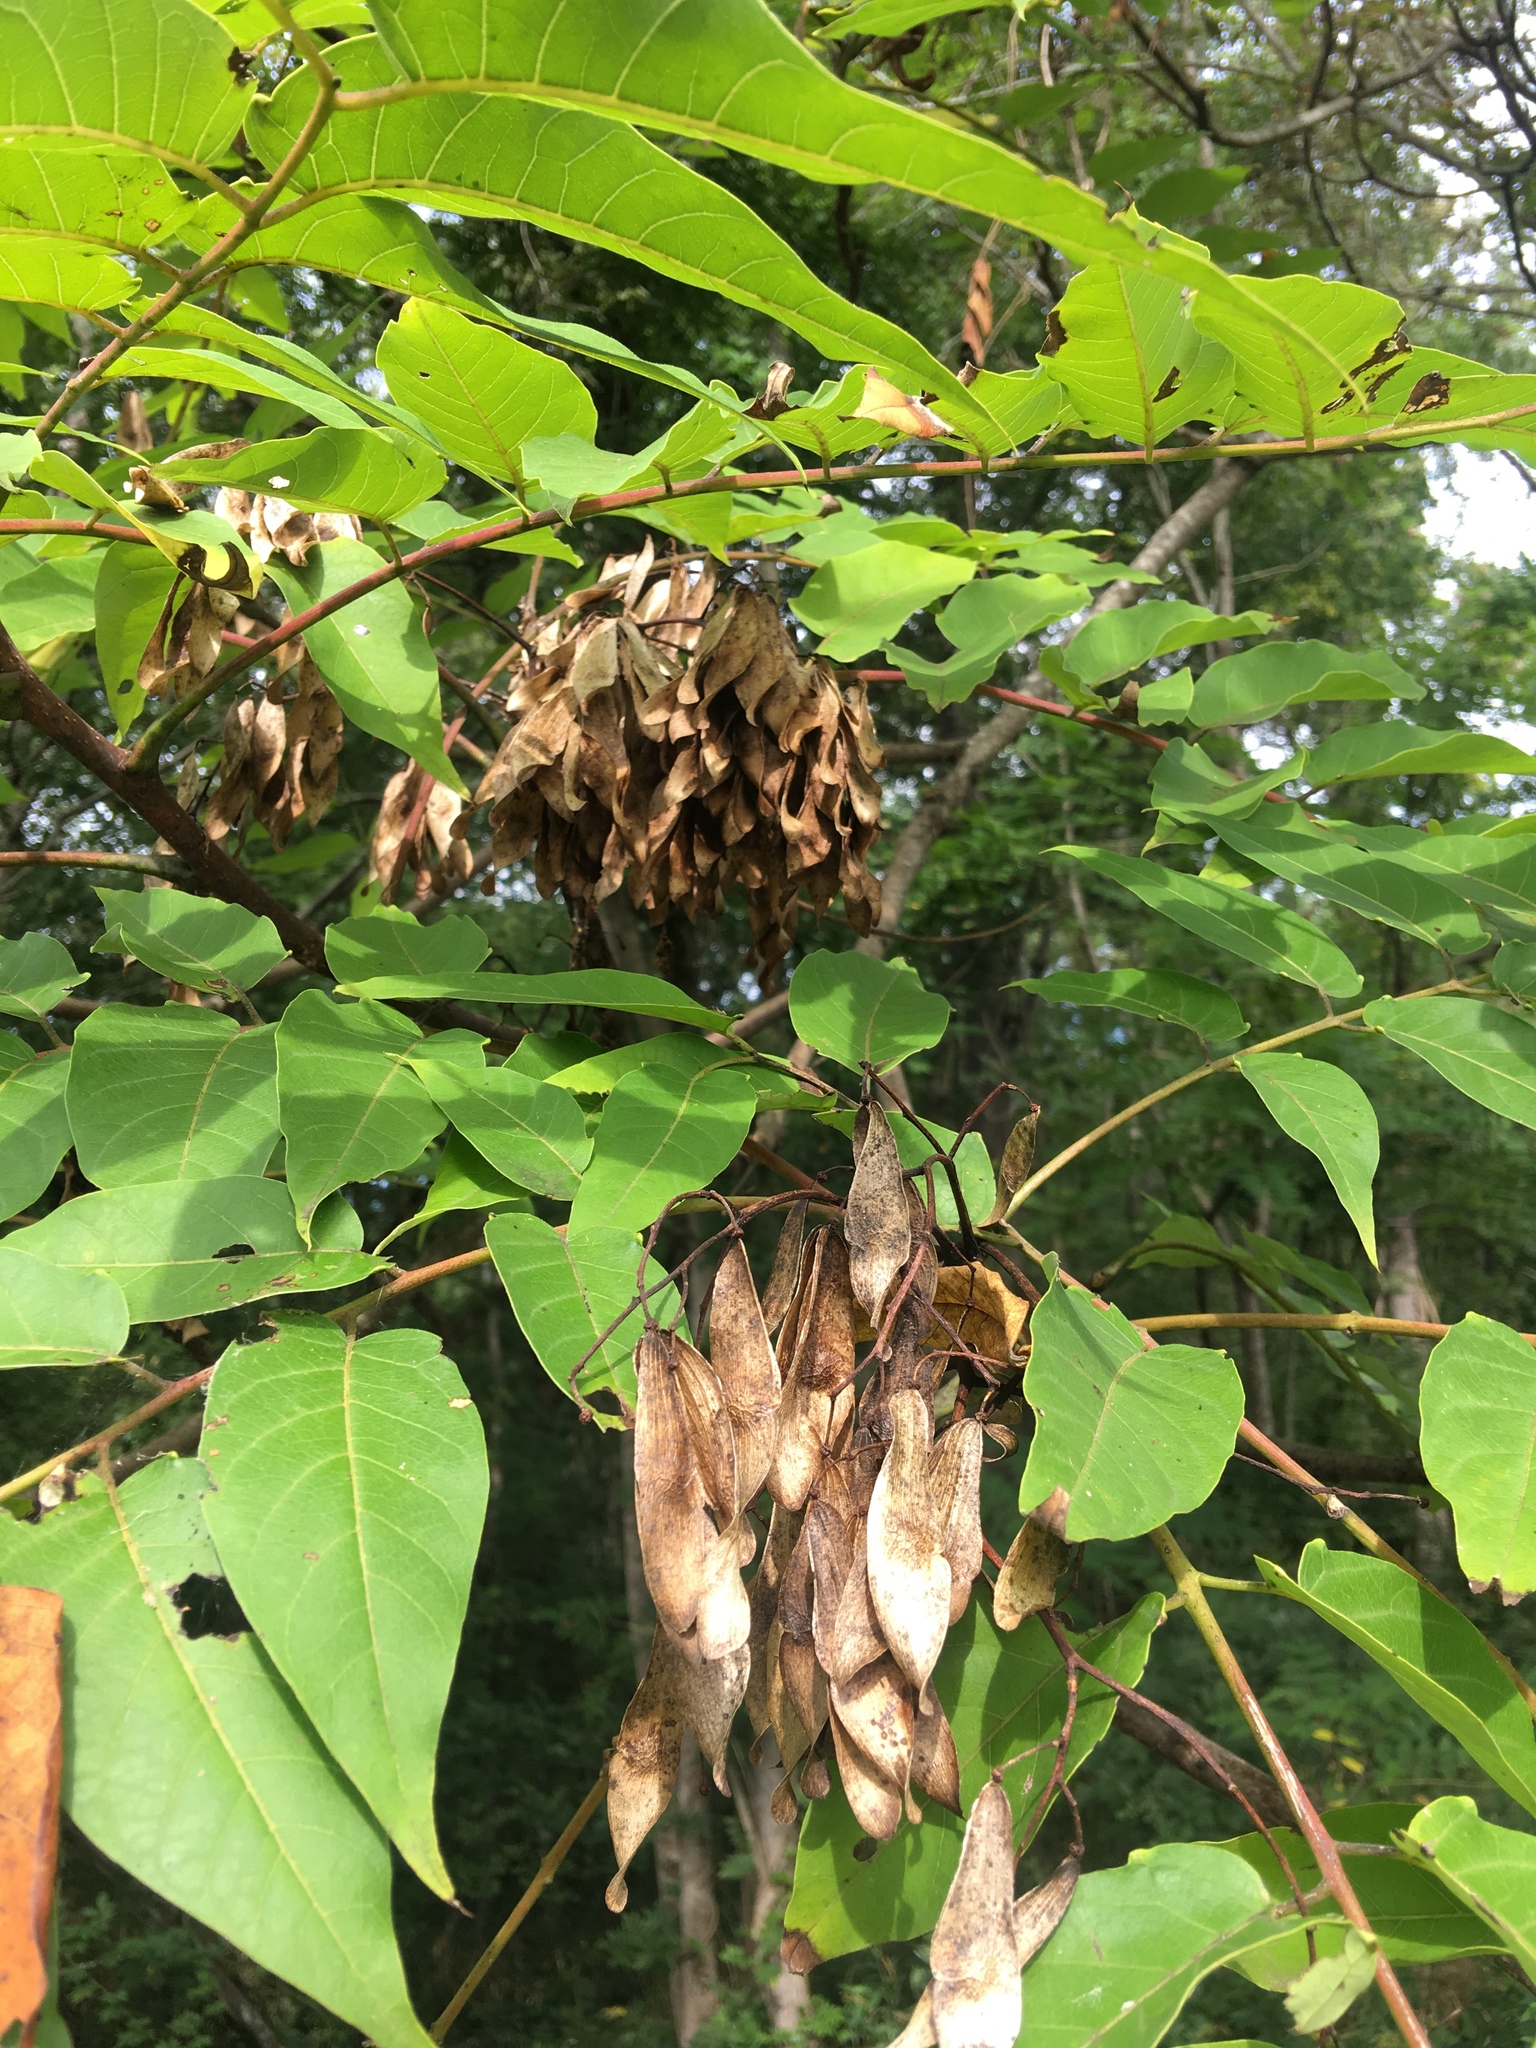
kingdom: Plantae
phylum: Tracheophyta
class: Magnoliopsida
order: Sapindales
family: Simaroubaceae
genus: Ailanthus
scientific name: Ailanthus altissima
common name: Tree-of-heaven
